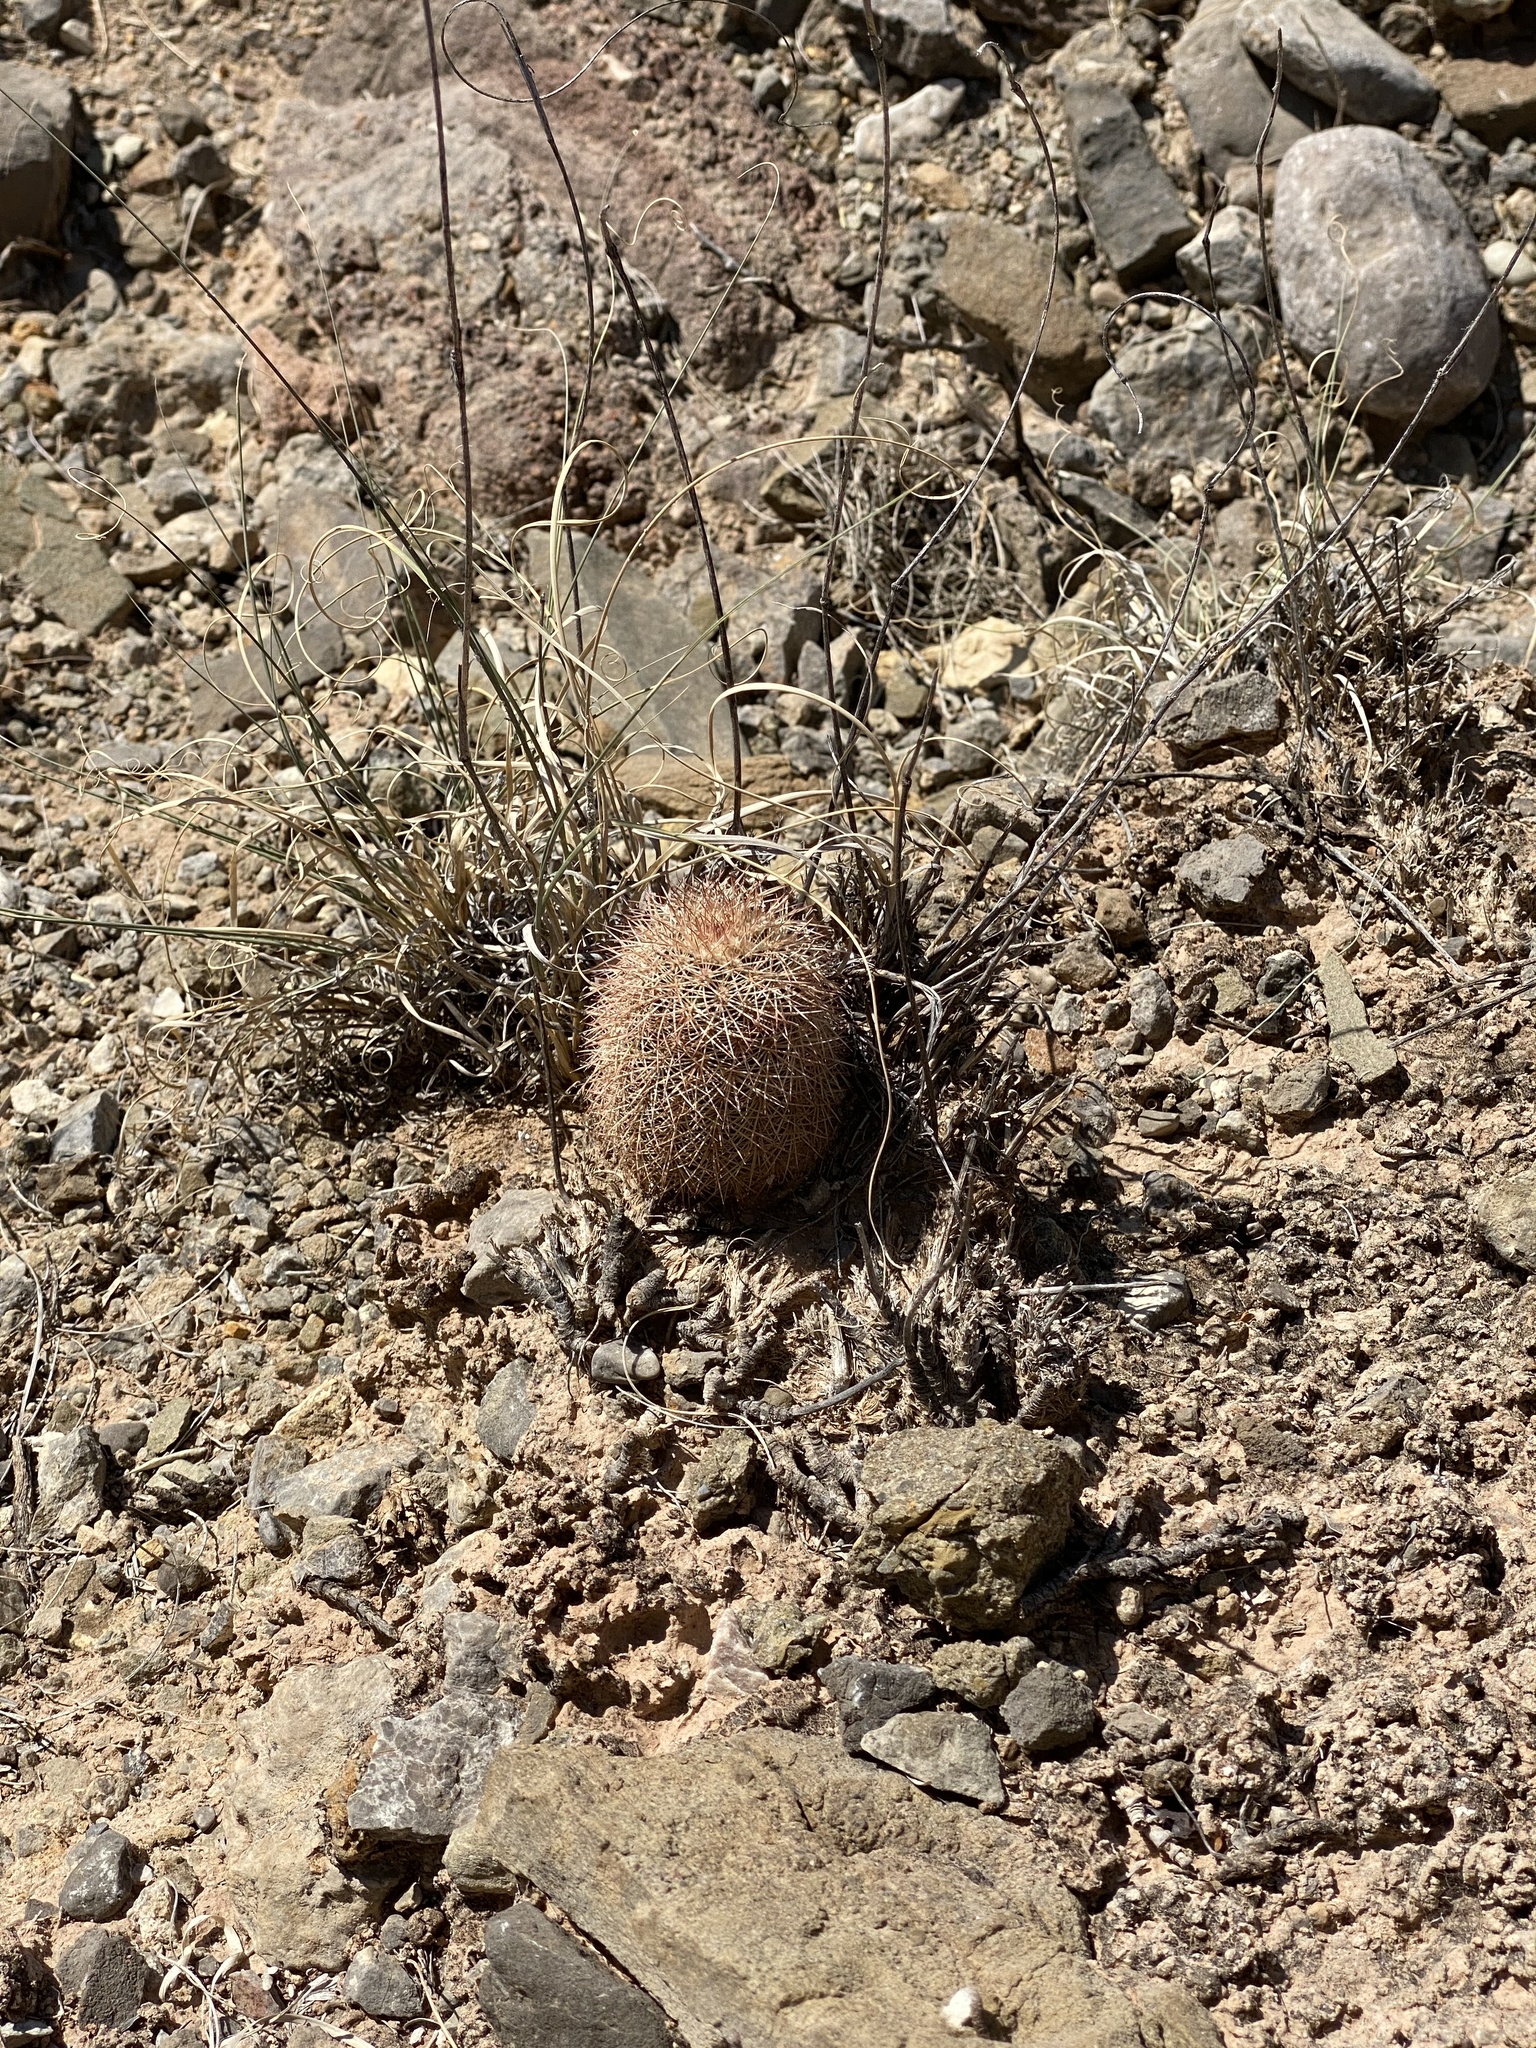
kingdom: Plantae
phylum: Tracheophyta
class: Magnoliopsida
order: Caryophyllales
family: Cactaceae
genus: Echinocereus
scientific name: Echinocereus dasyacanthus
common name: Spiny hedgehog cactus
